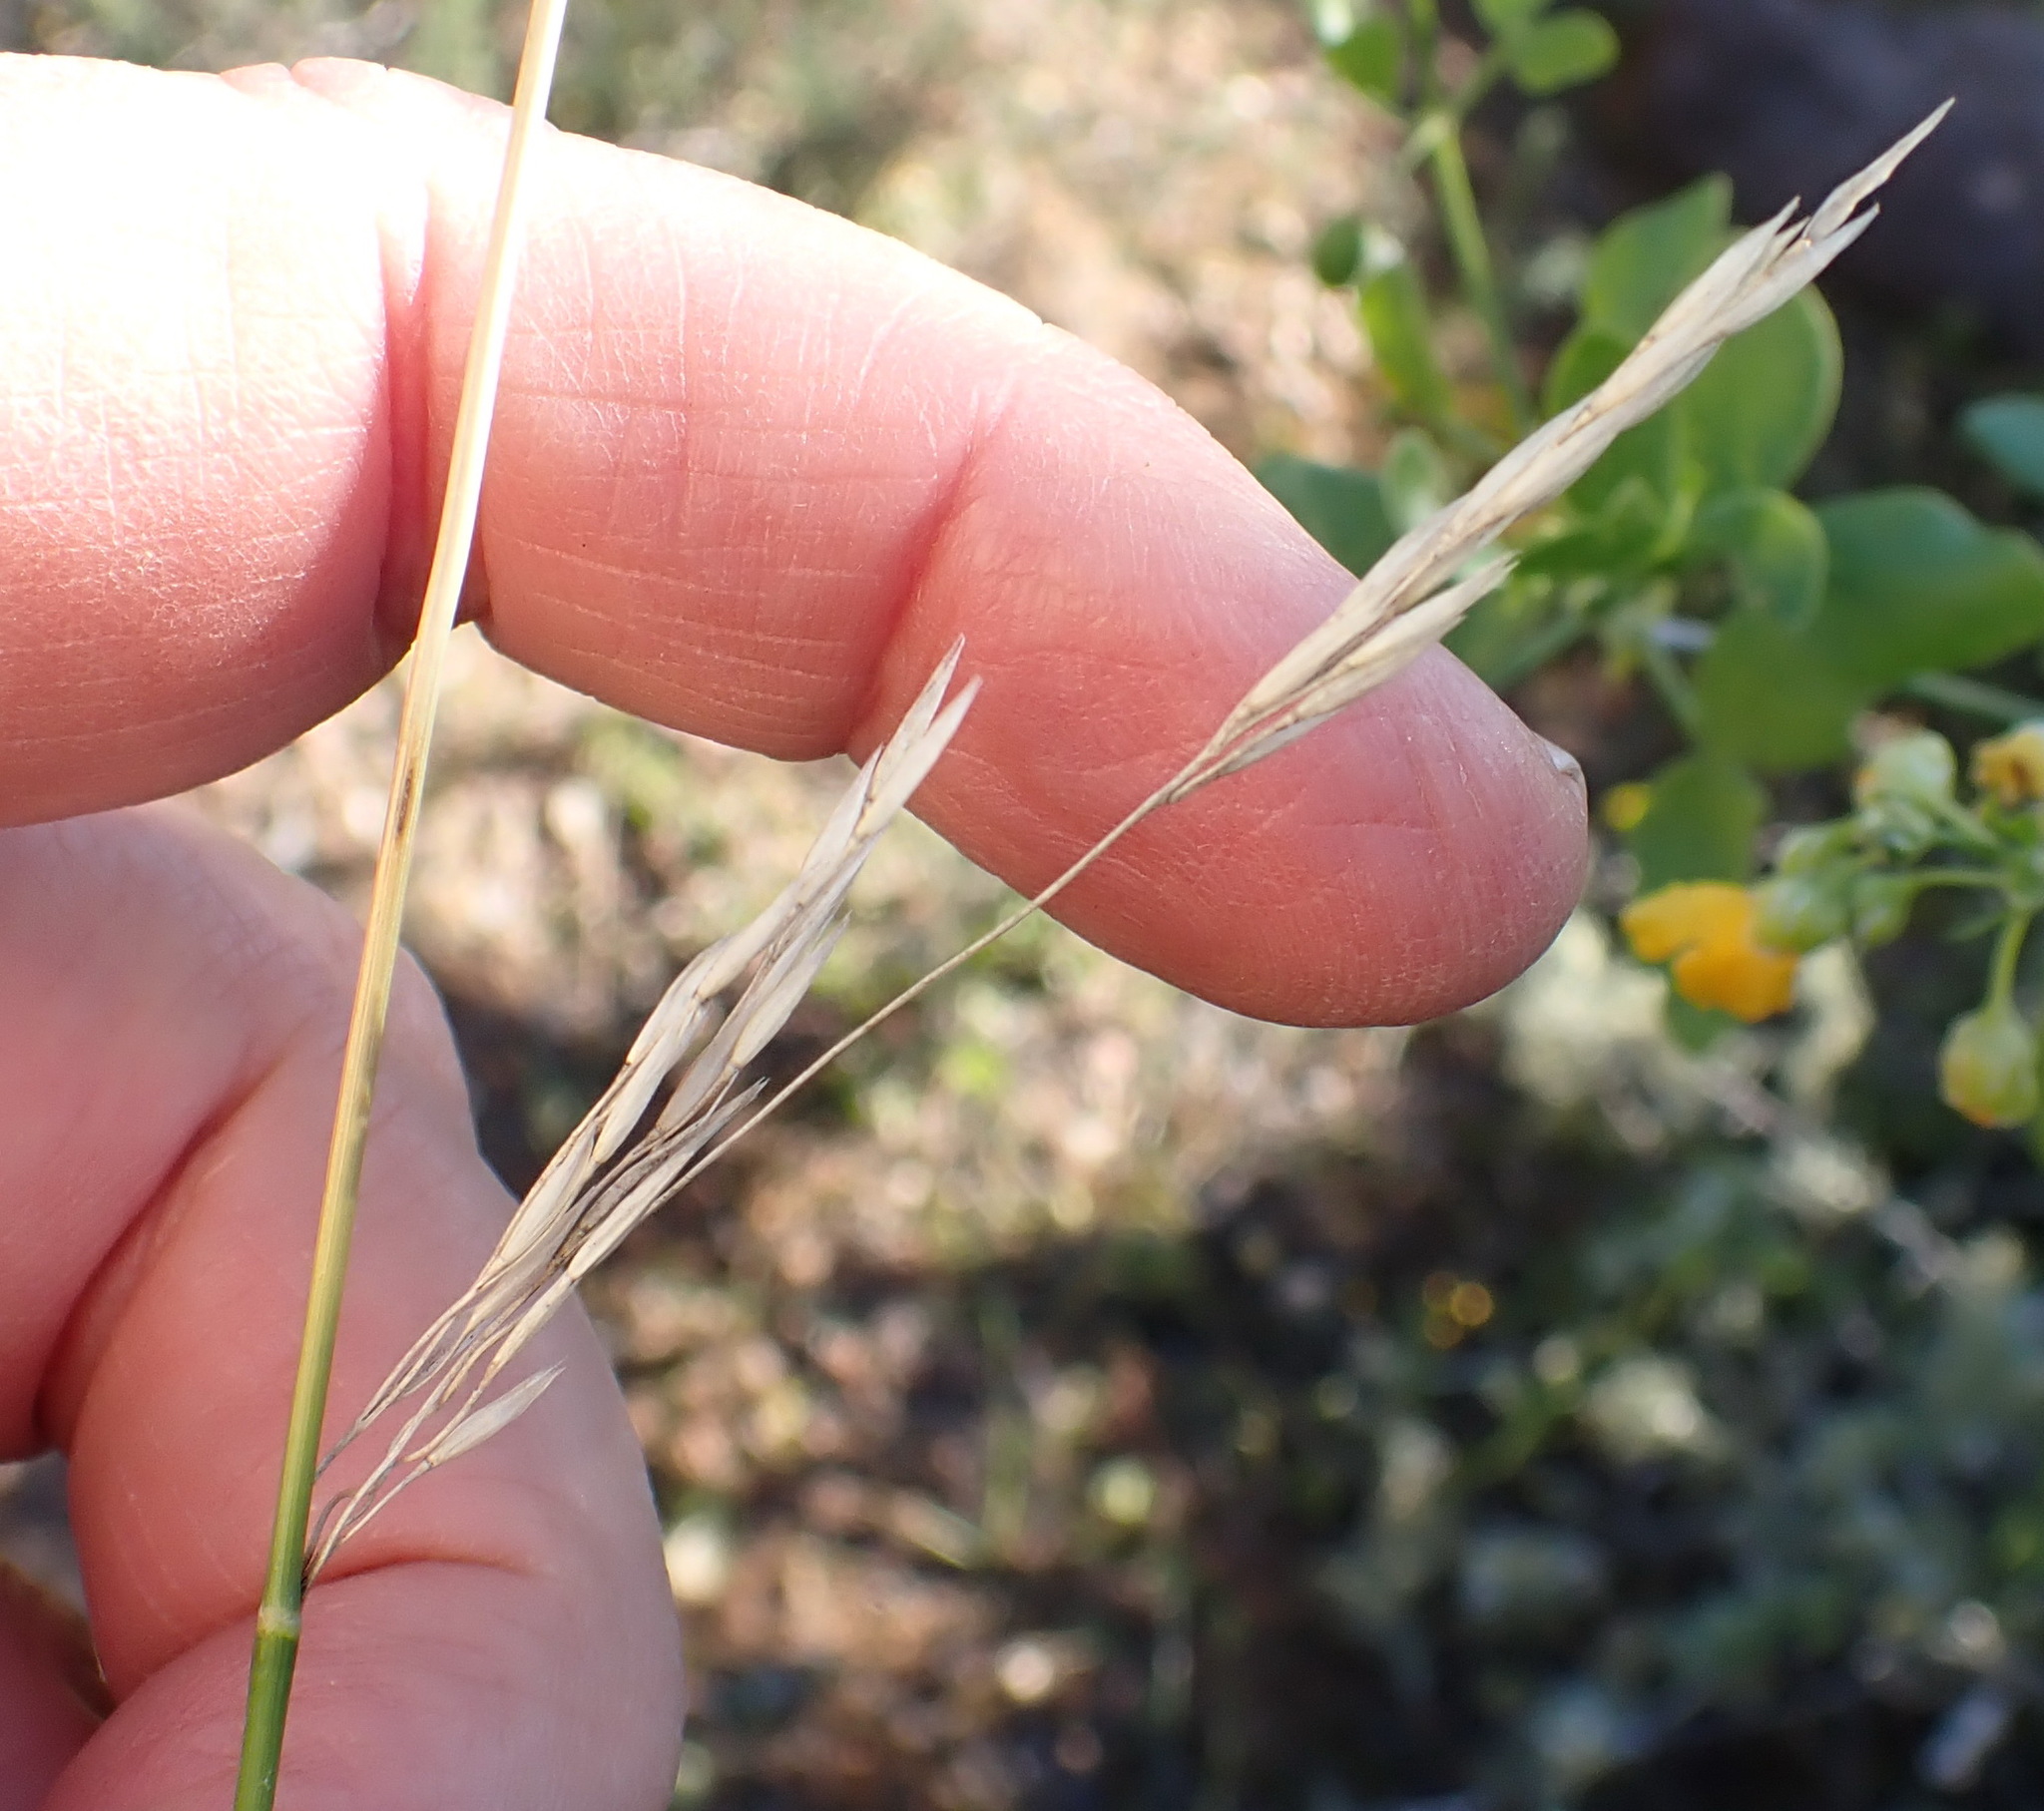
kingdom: Plantae
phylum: Tracheophyta
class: Liliopsida
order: Poales
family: Poaceae
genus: Ehrharta
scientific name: Ehrharta calycina
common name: Perennial veldtgrass
